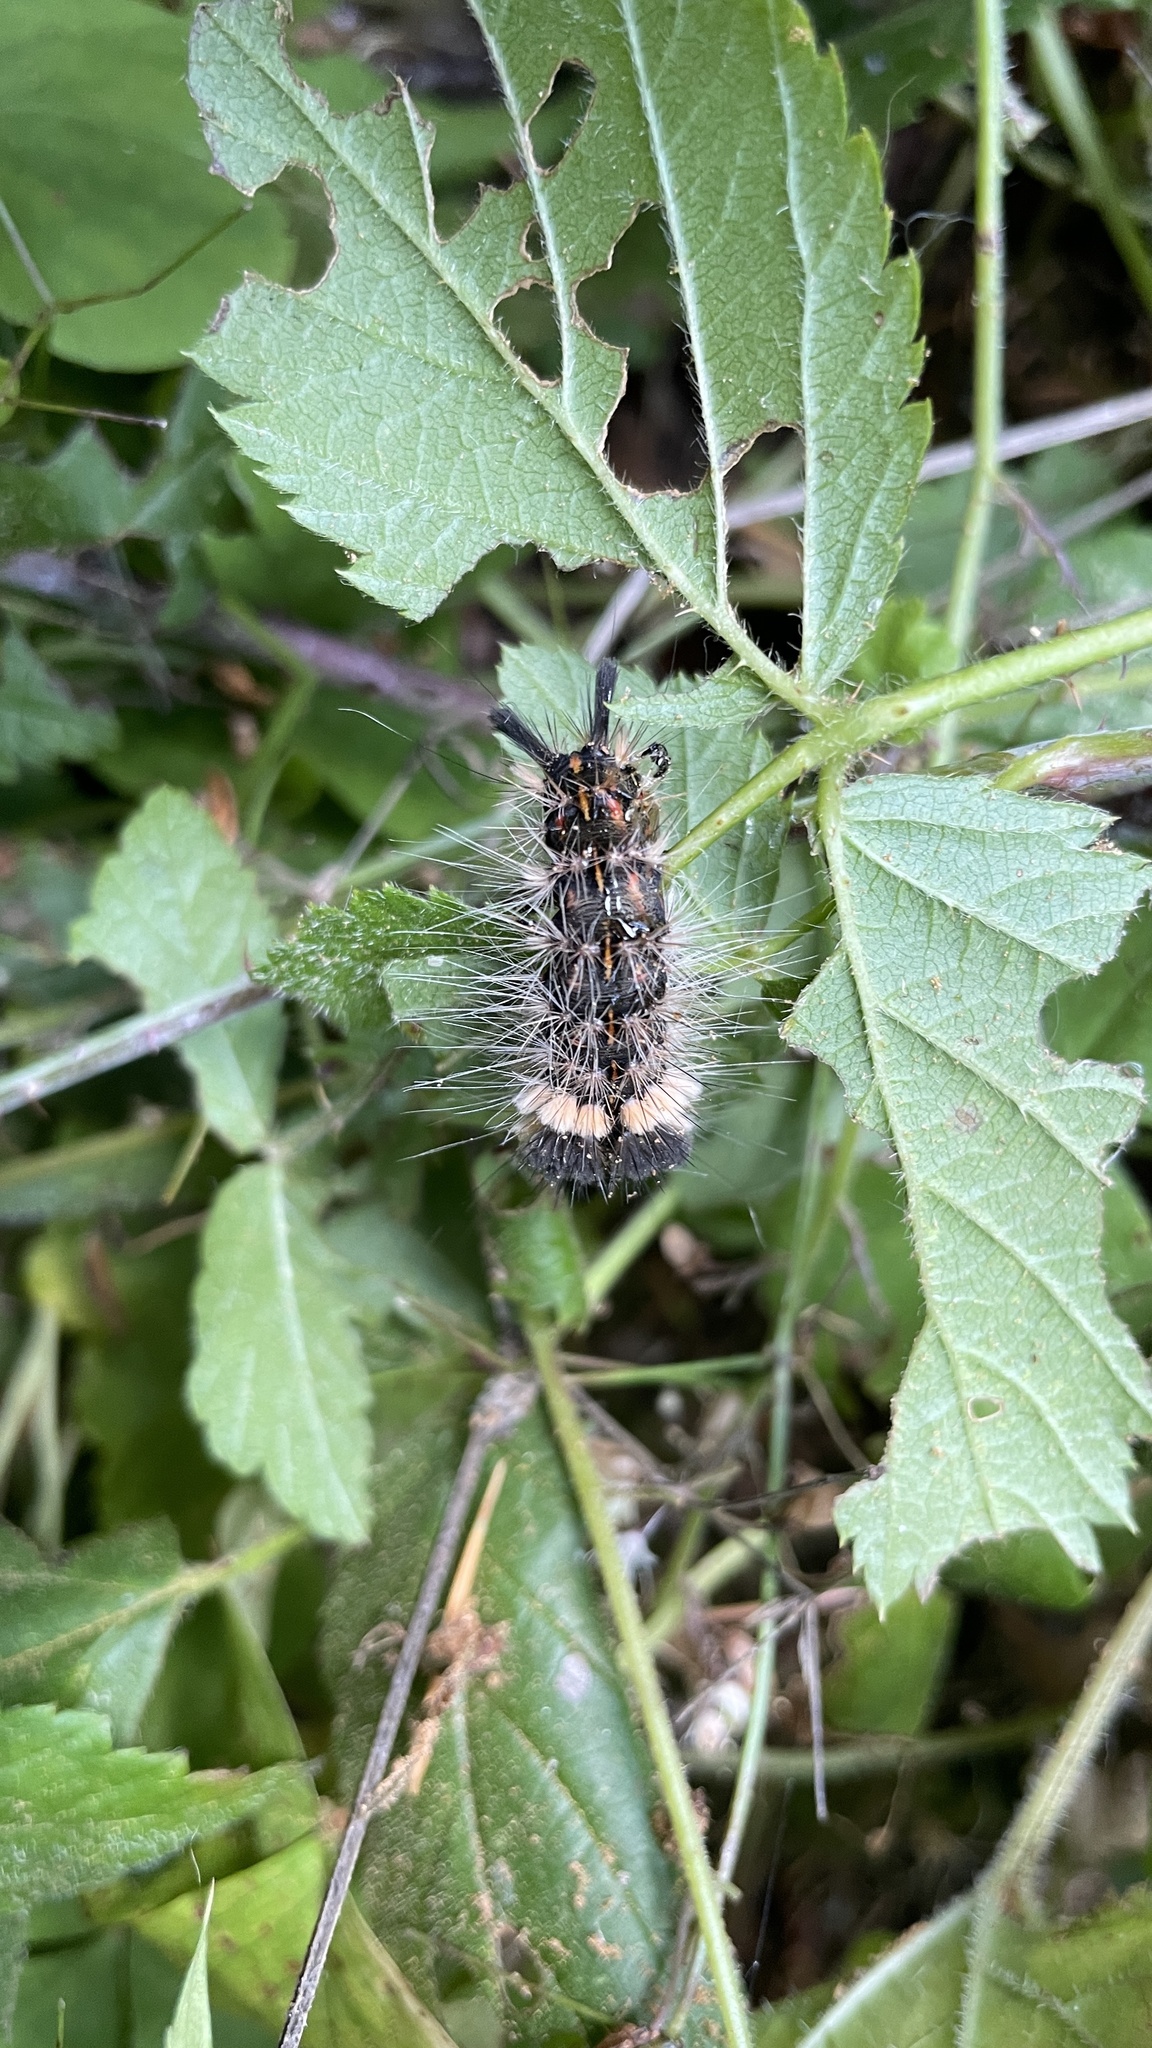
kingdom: Animalia
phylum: Arthropoda
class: Insecta
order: Lepidoptera
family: Noctuidae
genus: Acronicta
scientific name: Acronicta impleta
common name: Powdered dagger
